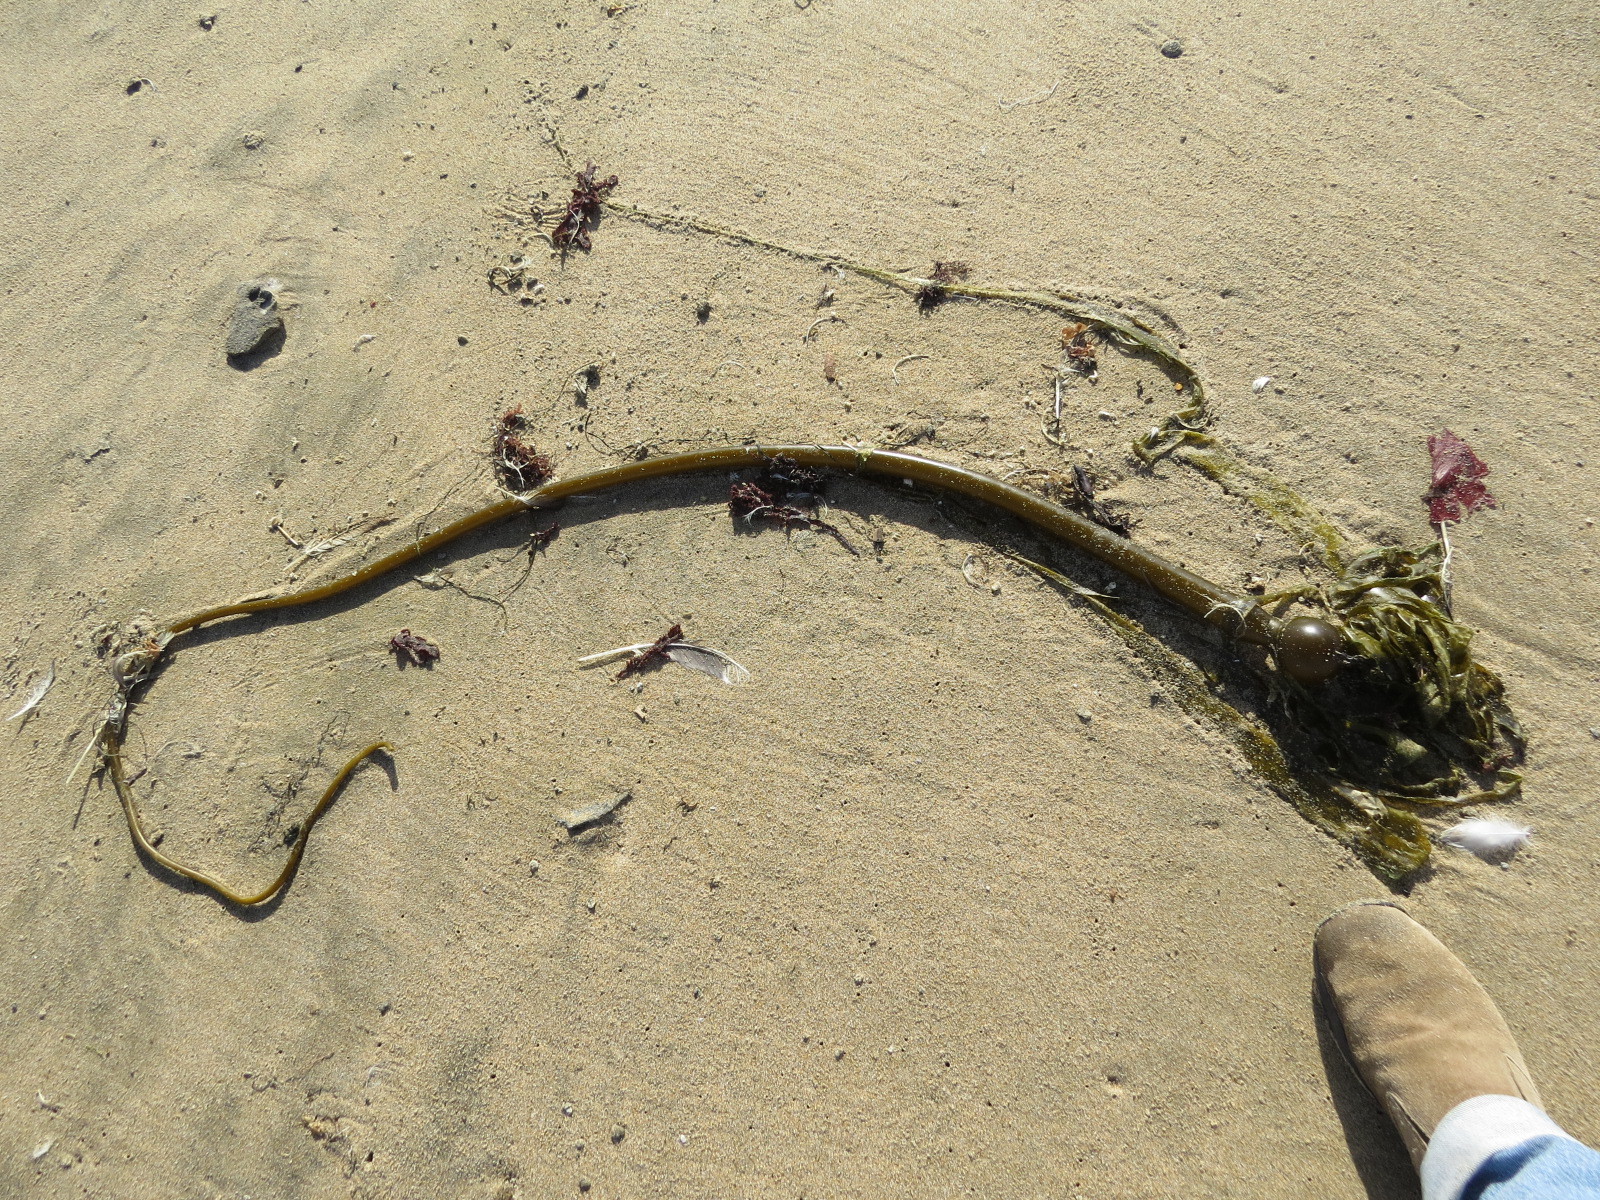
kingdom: Chromista
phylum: Ochrophyta
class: Phaeophyceae
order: Laminariales
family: Laminariaceae
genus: Nereocystis
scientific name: Nereocystis luetkeana
